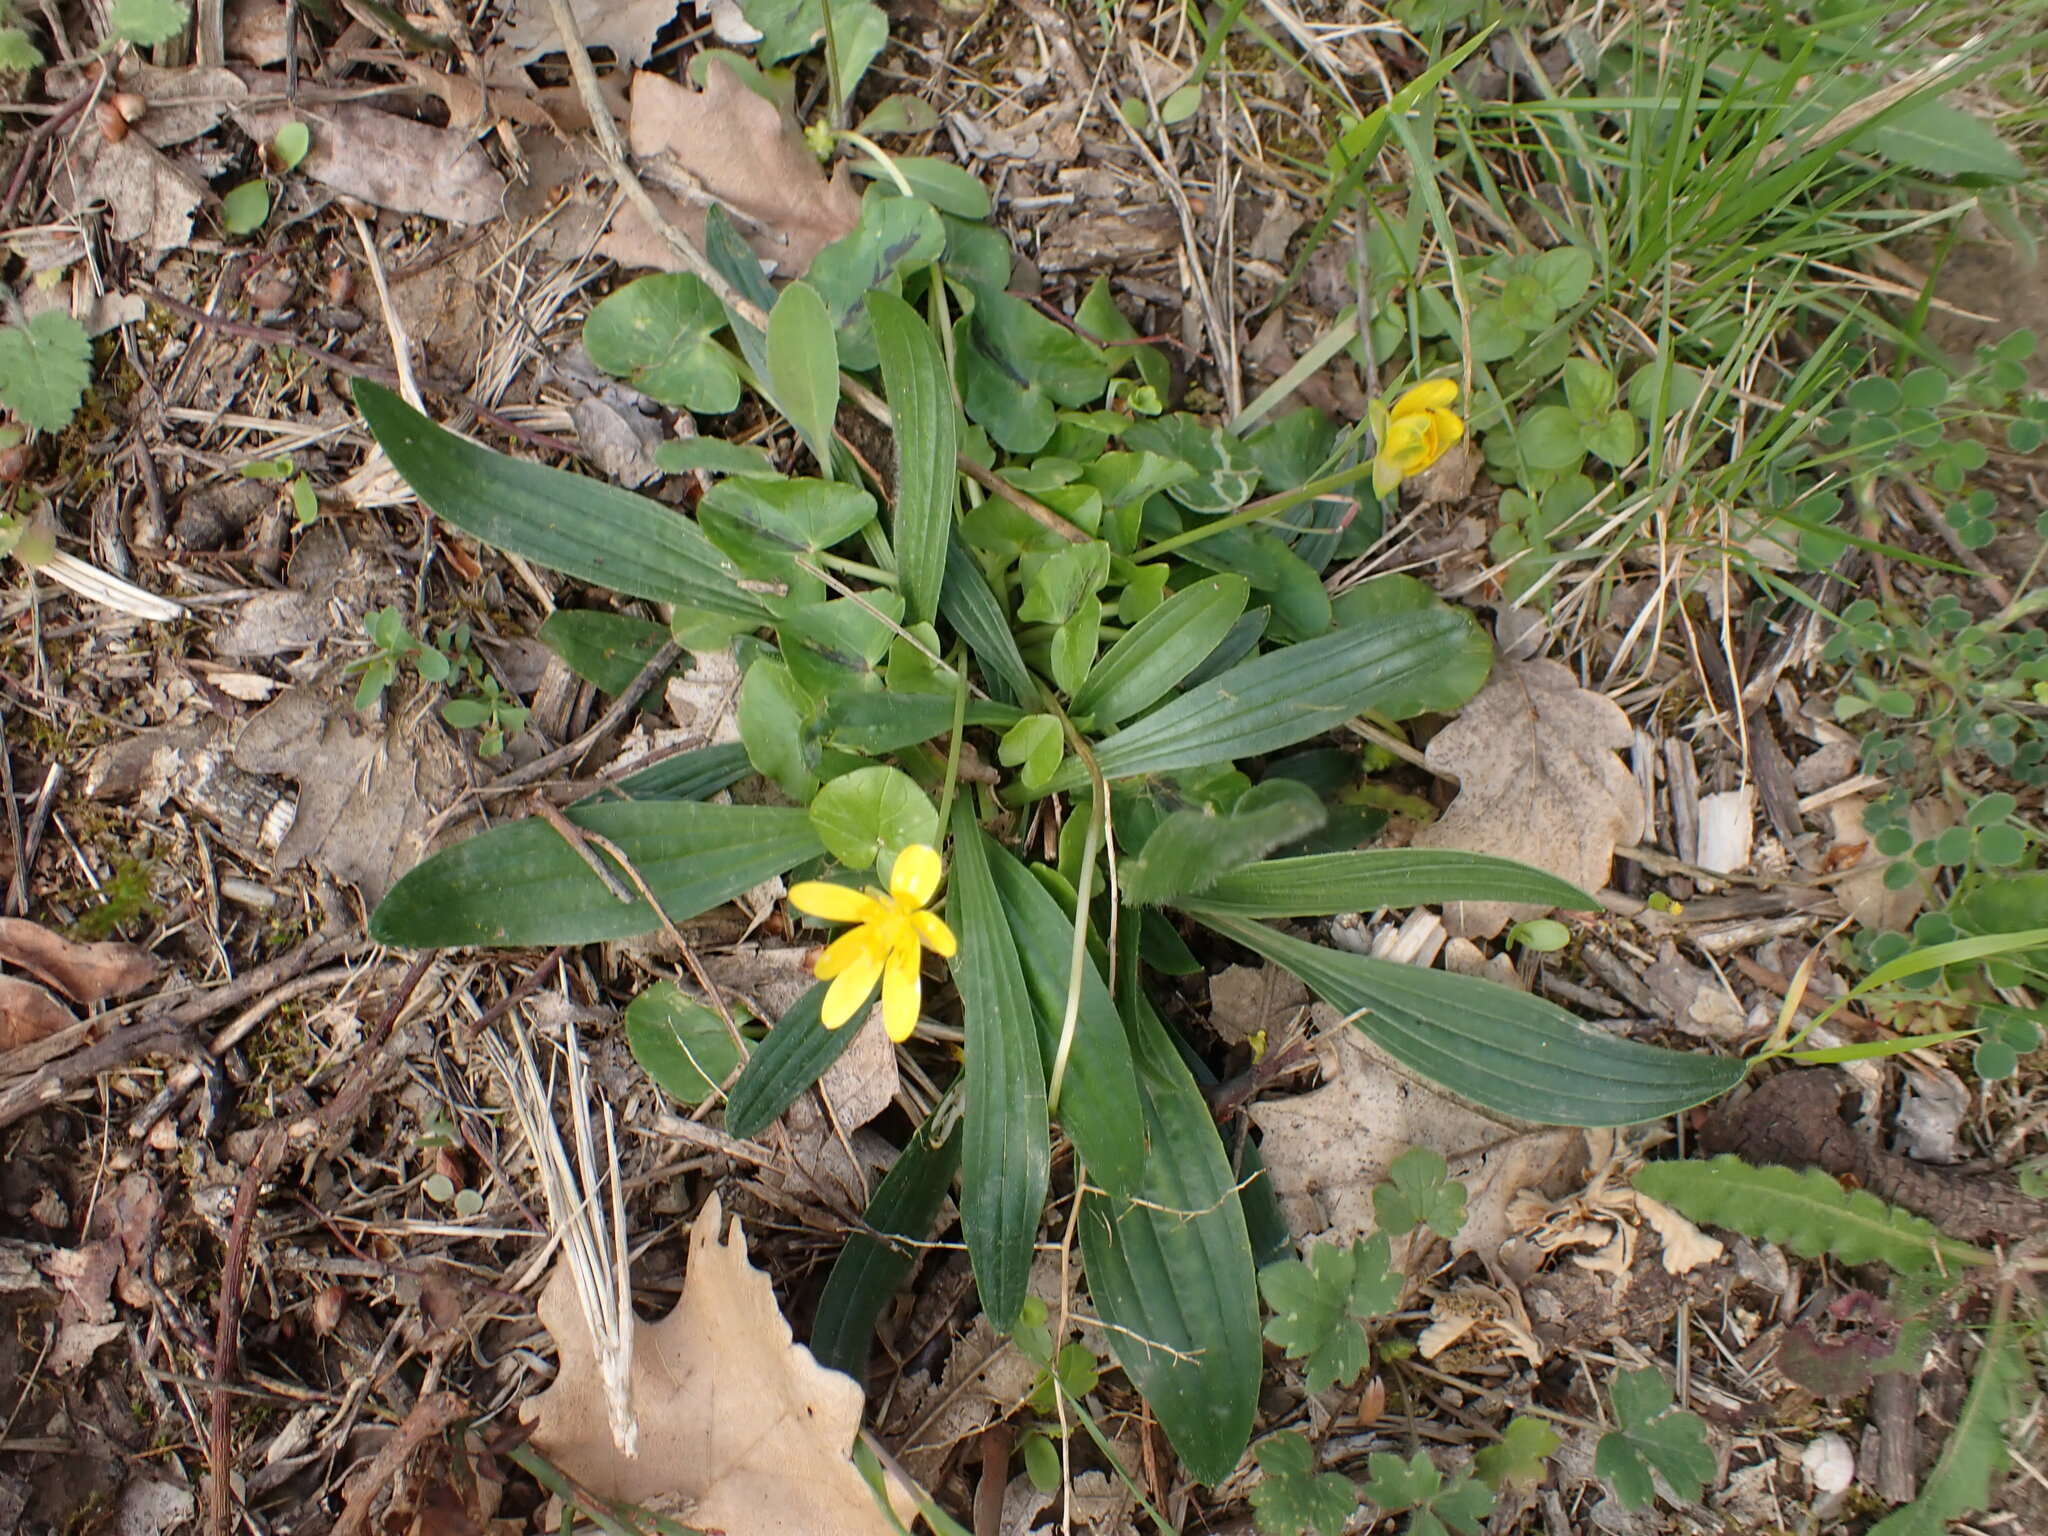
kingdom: Plantae
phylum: Tracheophyta
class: Magnoliopsida
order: Ranunculales
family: Ranunculaceae
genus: Ficaria
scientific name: Ficaria verna
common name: Lesser celandine
